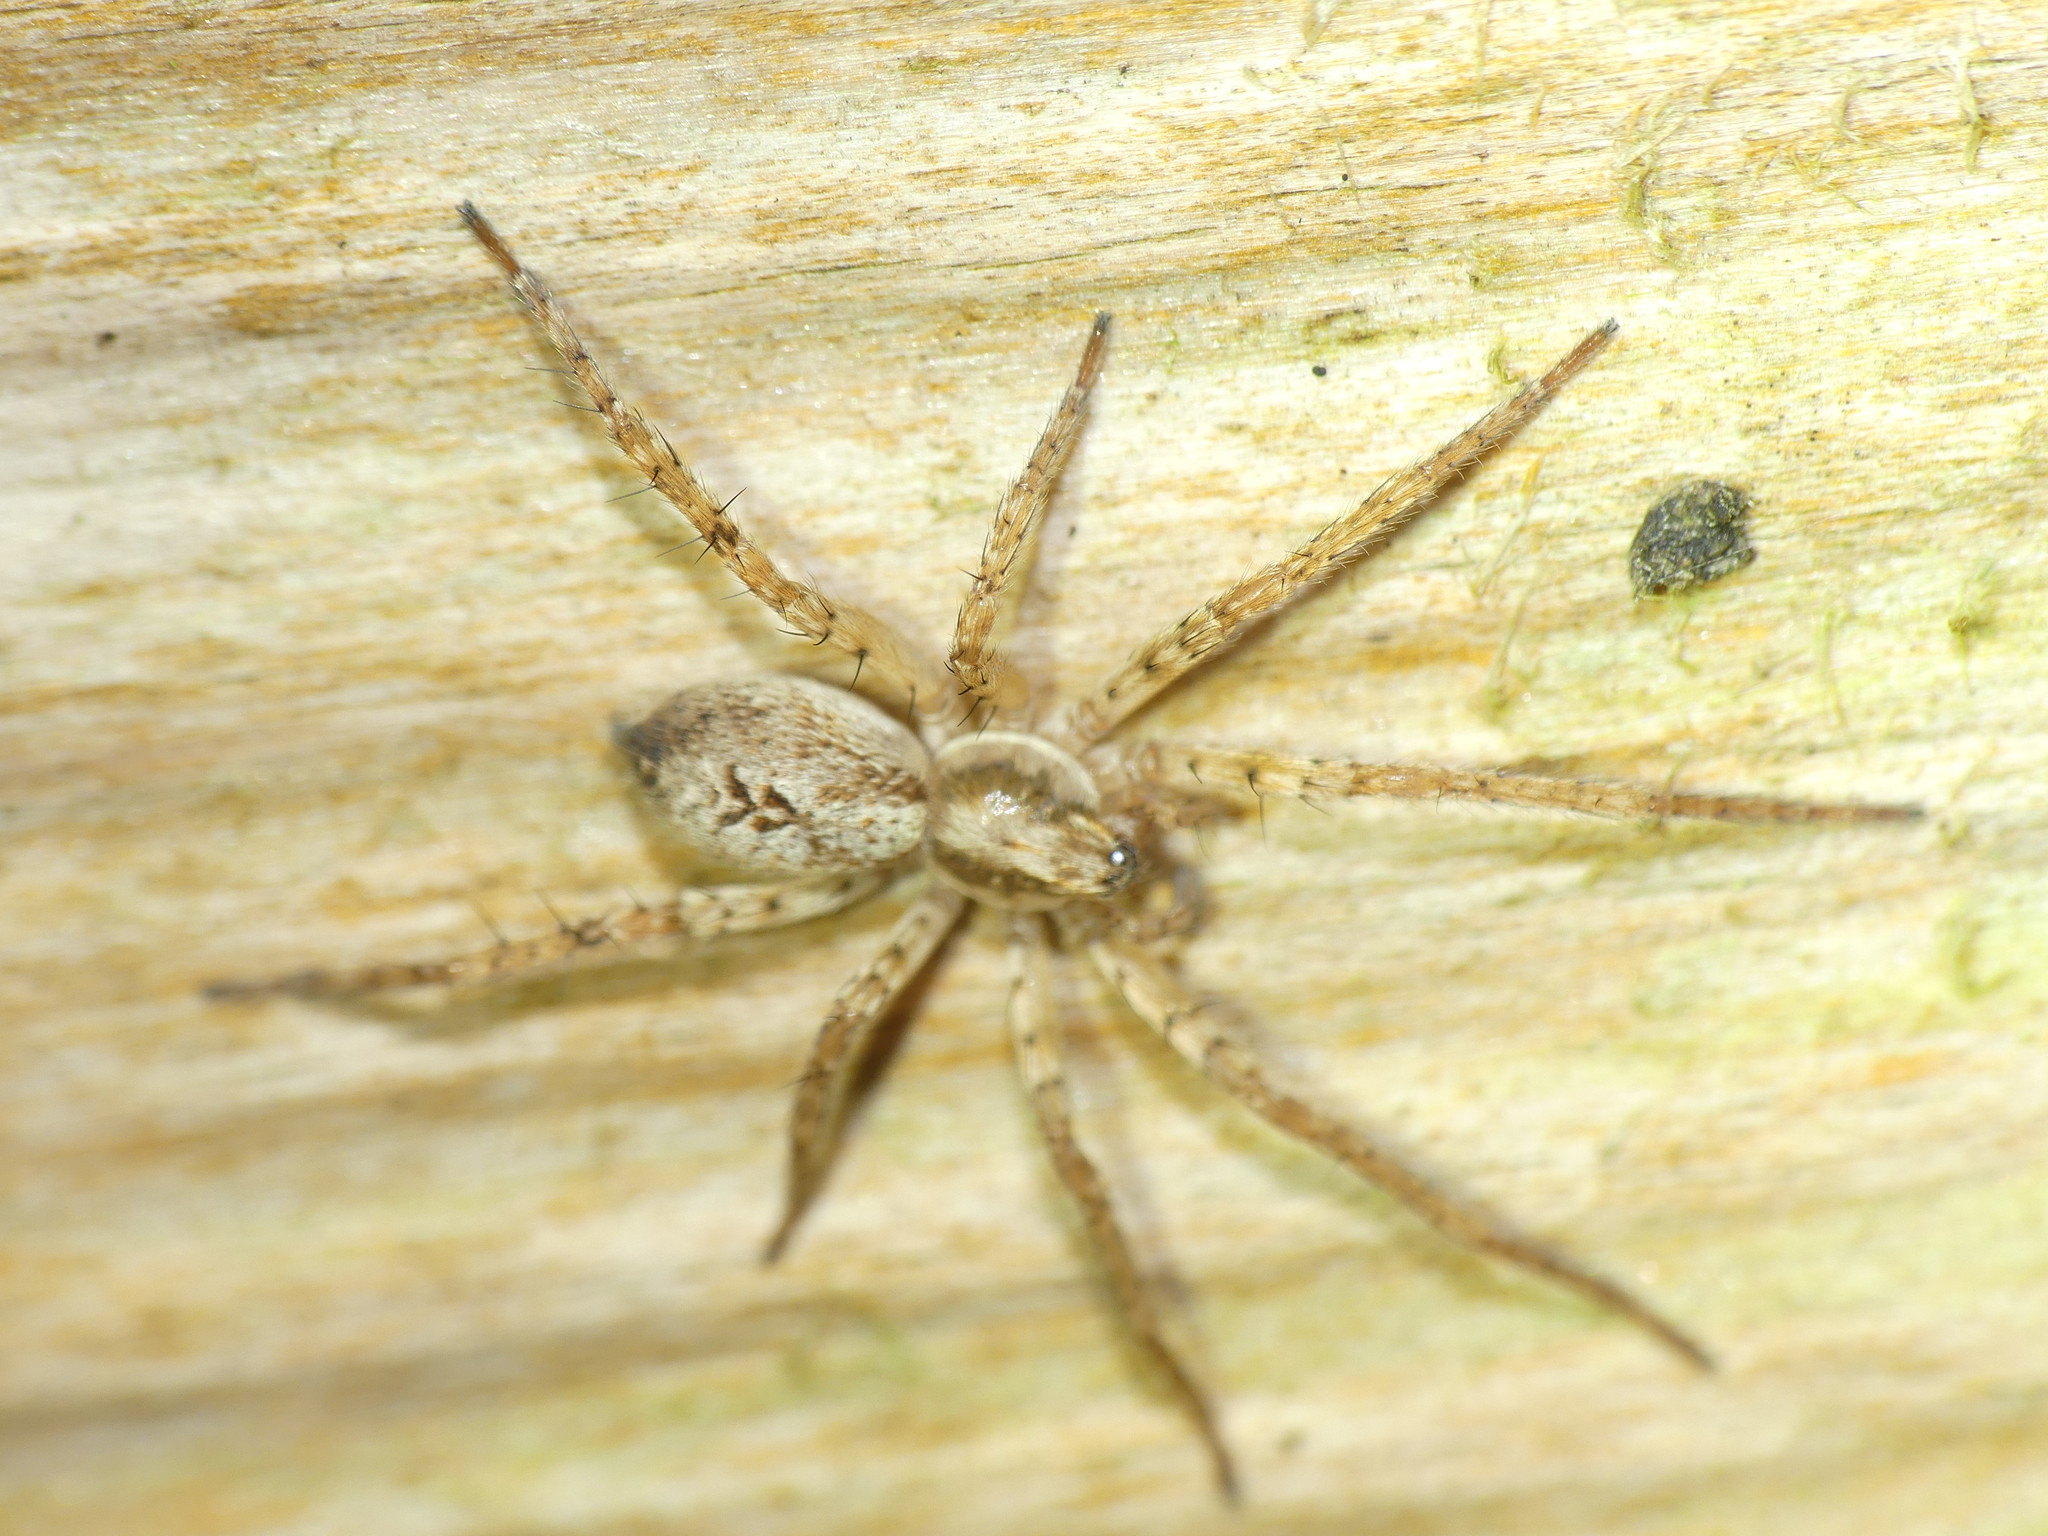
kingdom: Animalia
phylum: Arthropoda
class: Arachnida
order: Araneae
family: Anyphaenidae
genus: Anyphaena
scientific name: Anyphaena accentuata
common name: Buzzing spider
